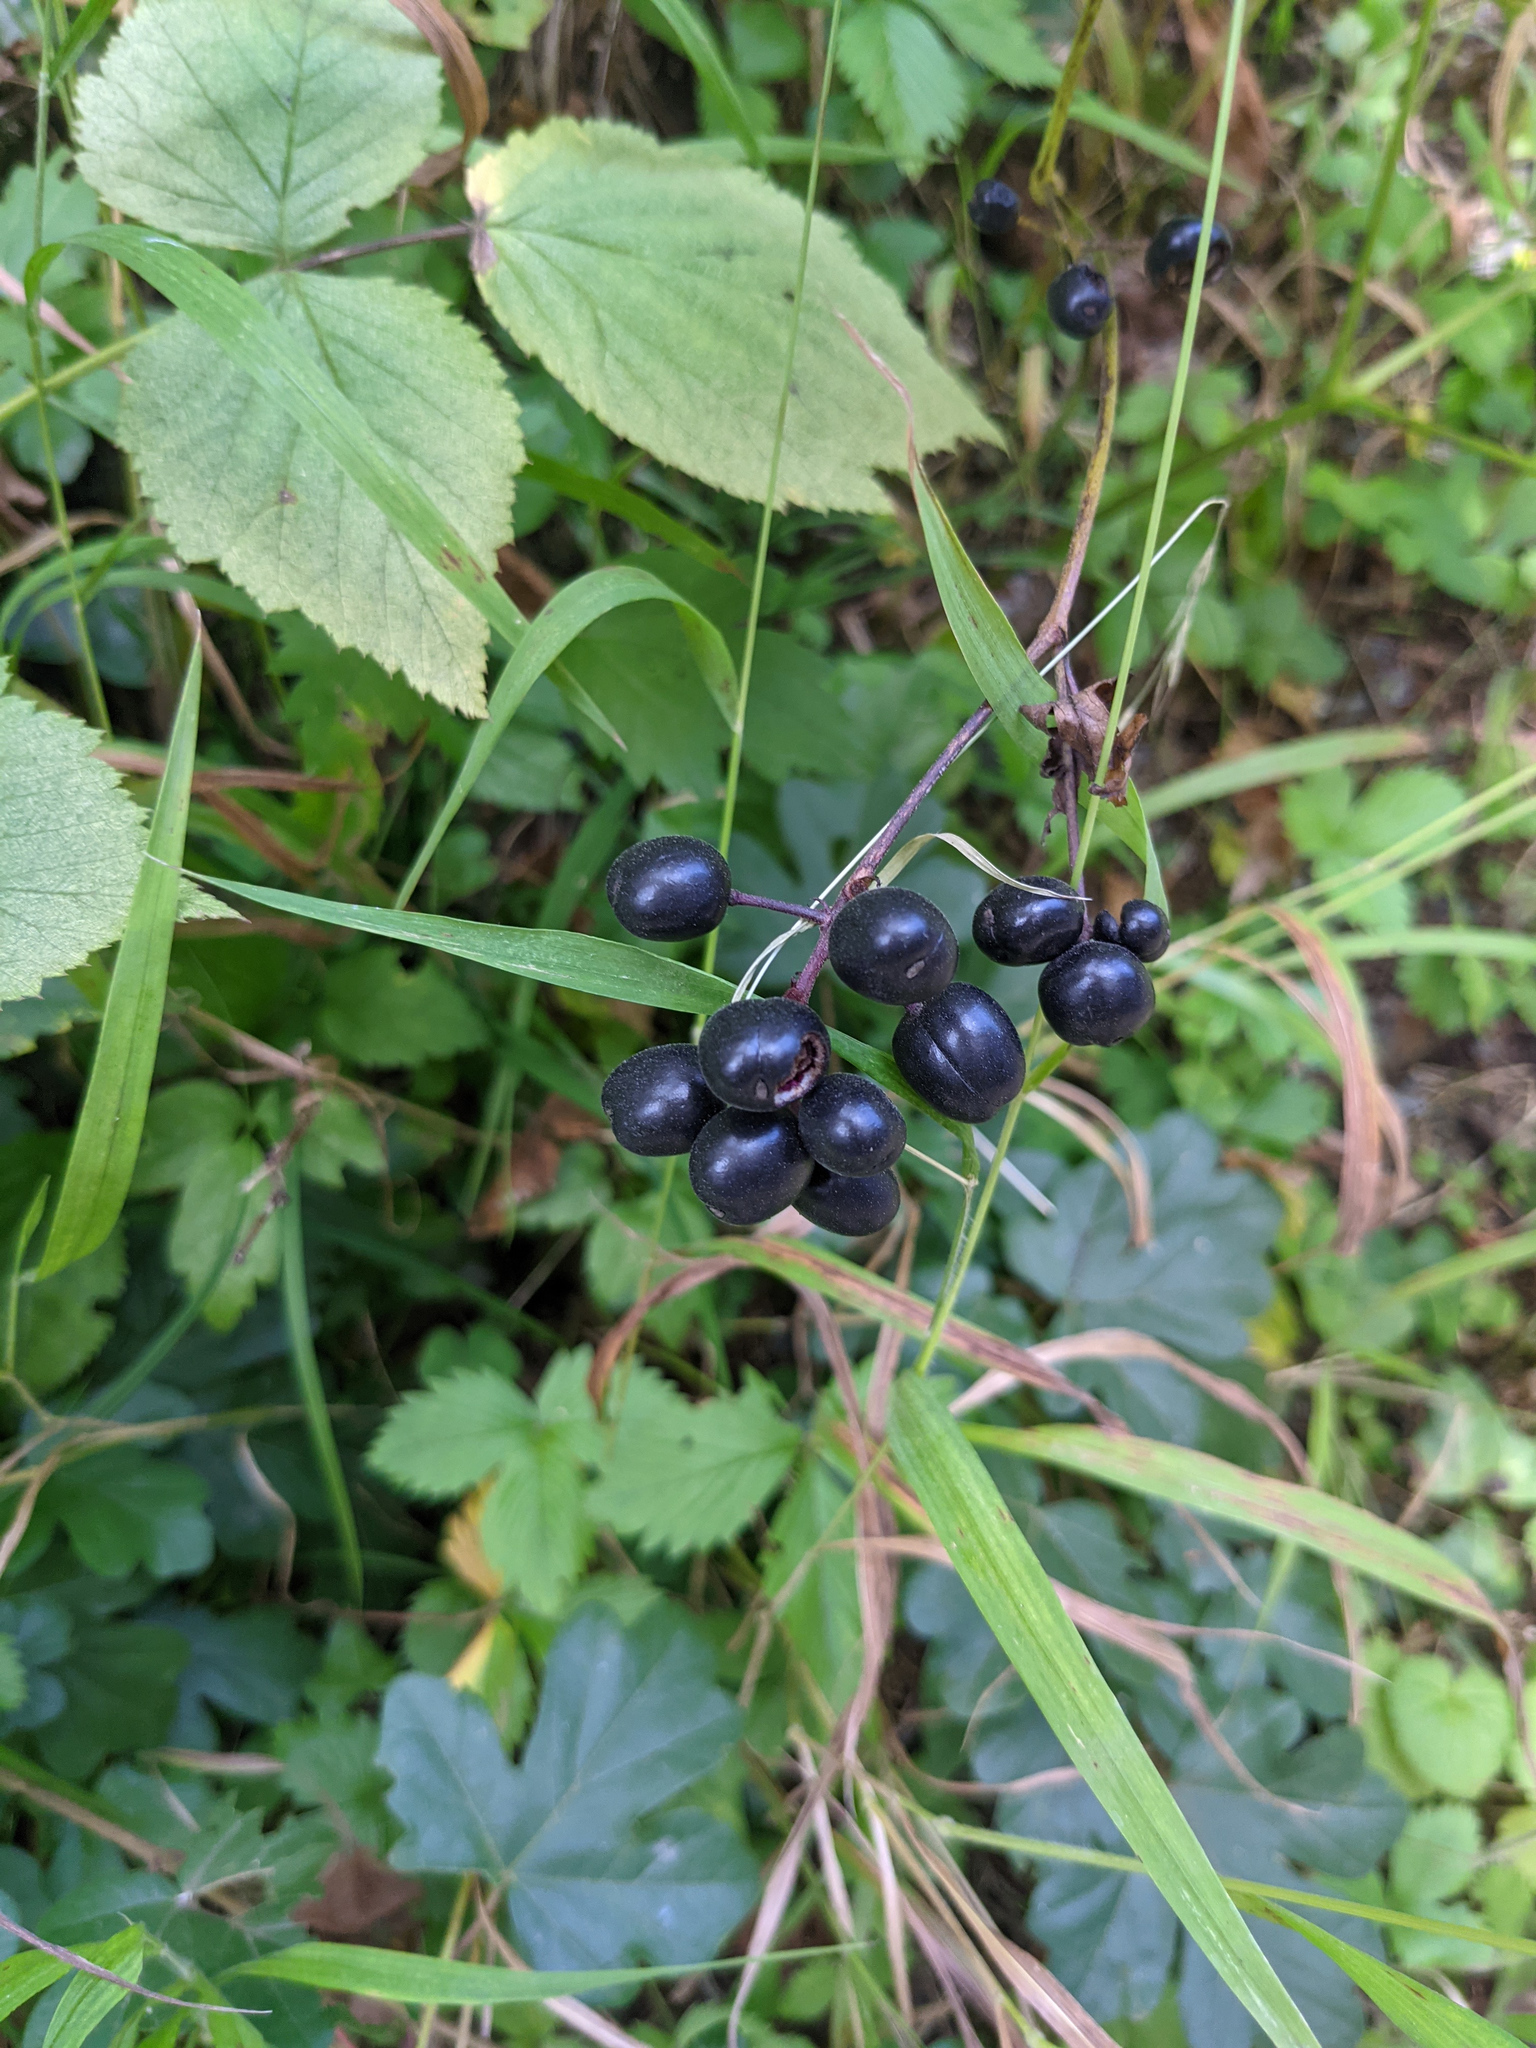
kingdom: Plantae
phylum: Tracheophyta
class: Magnoliopsida
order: Ranunculales
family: Ranunculaceae
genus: Actaea
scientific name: Actaea spicata
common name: Baneberry
